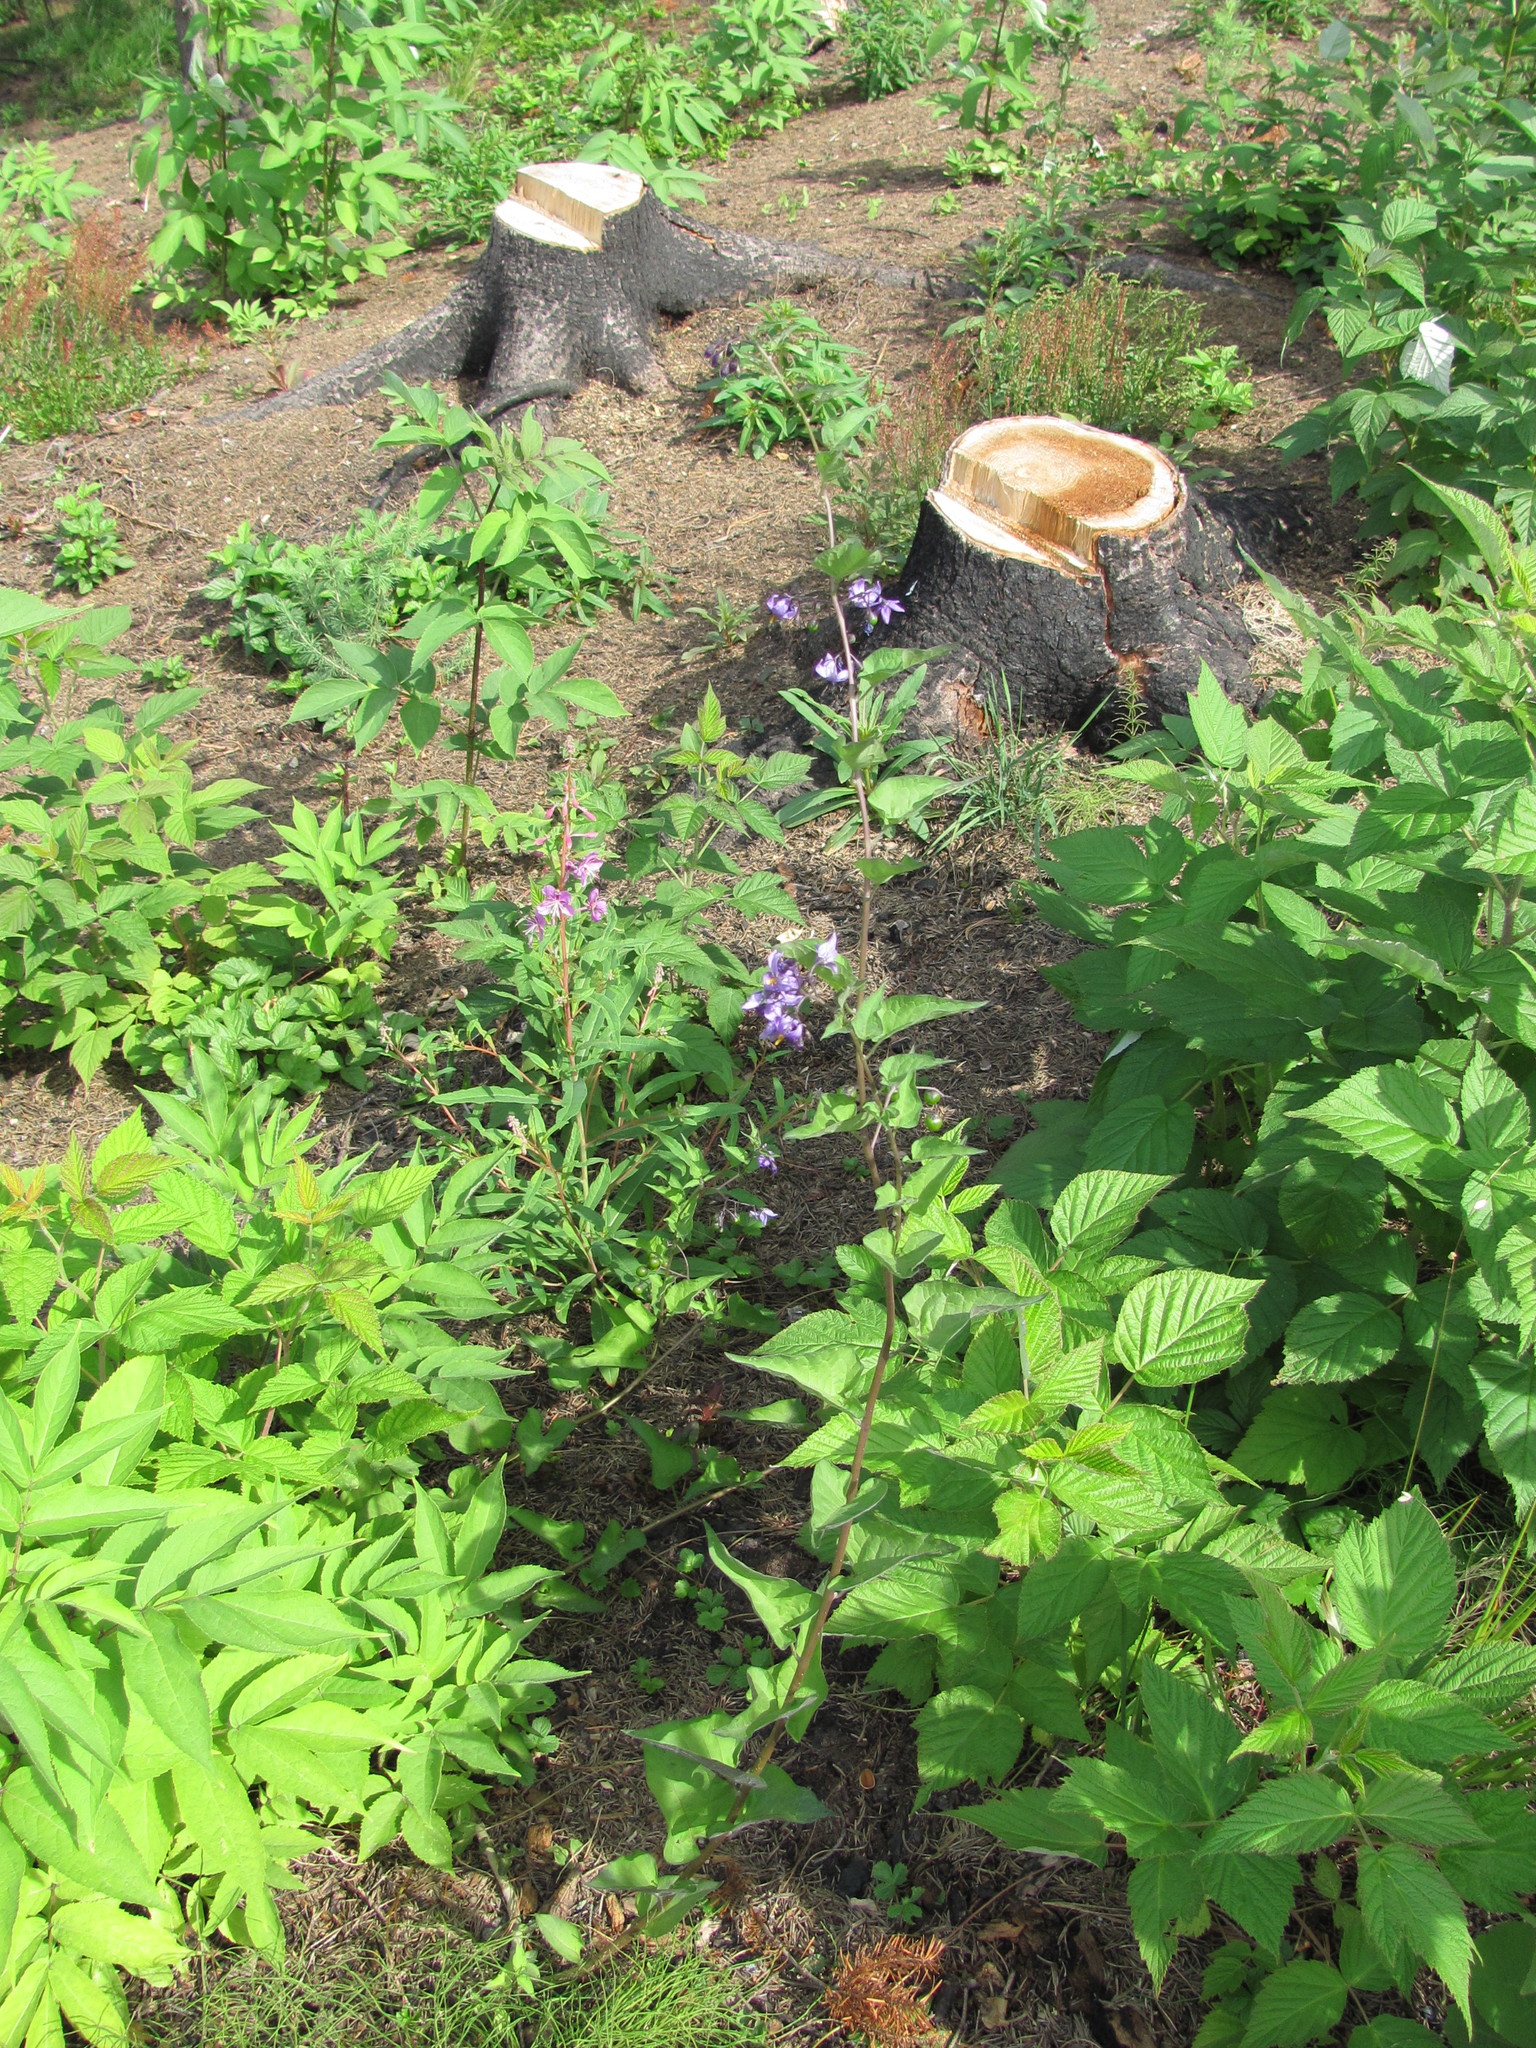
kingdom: Plantae
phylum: Tracheophyta
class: Magnoliopsida
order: Solanales
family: Solanaceae
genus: Solanum
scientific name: Solanum dulcamara
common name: Climbing nightshade
